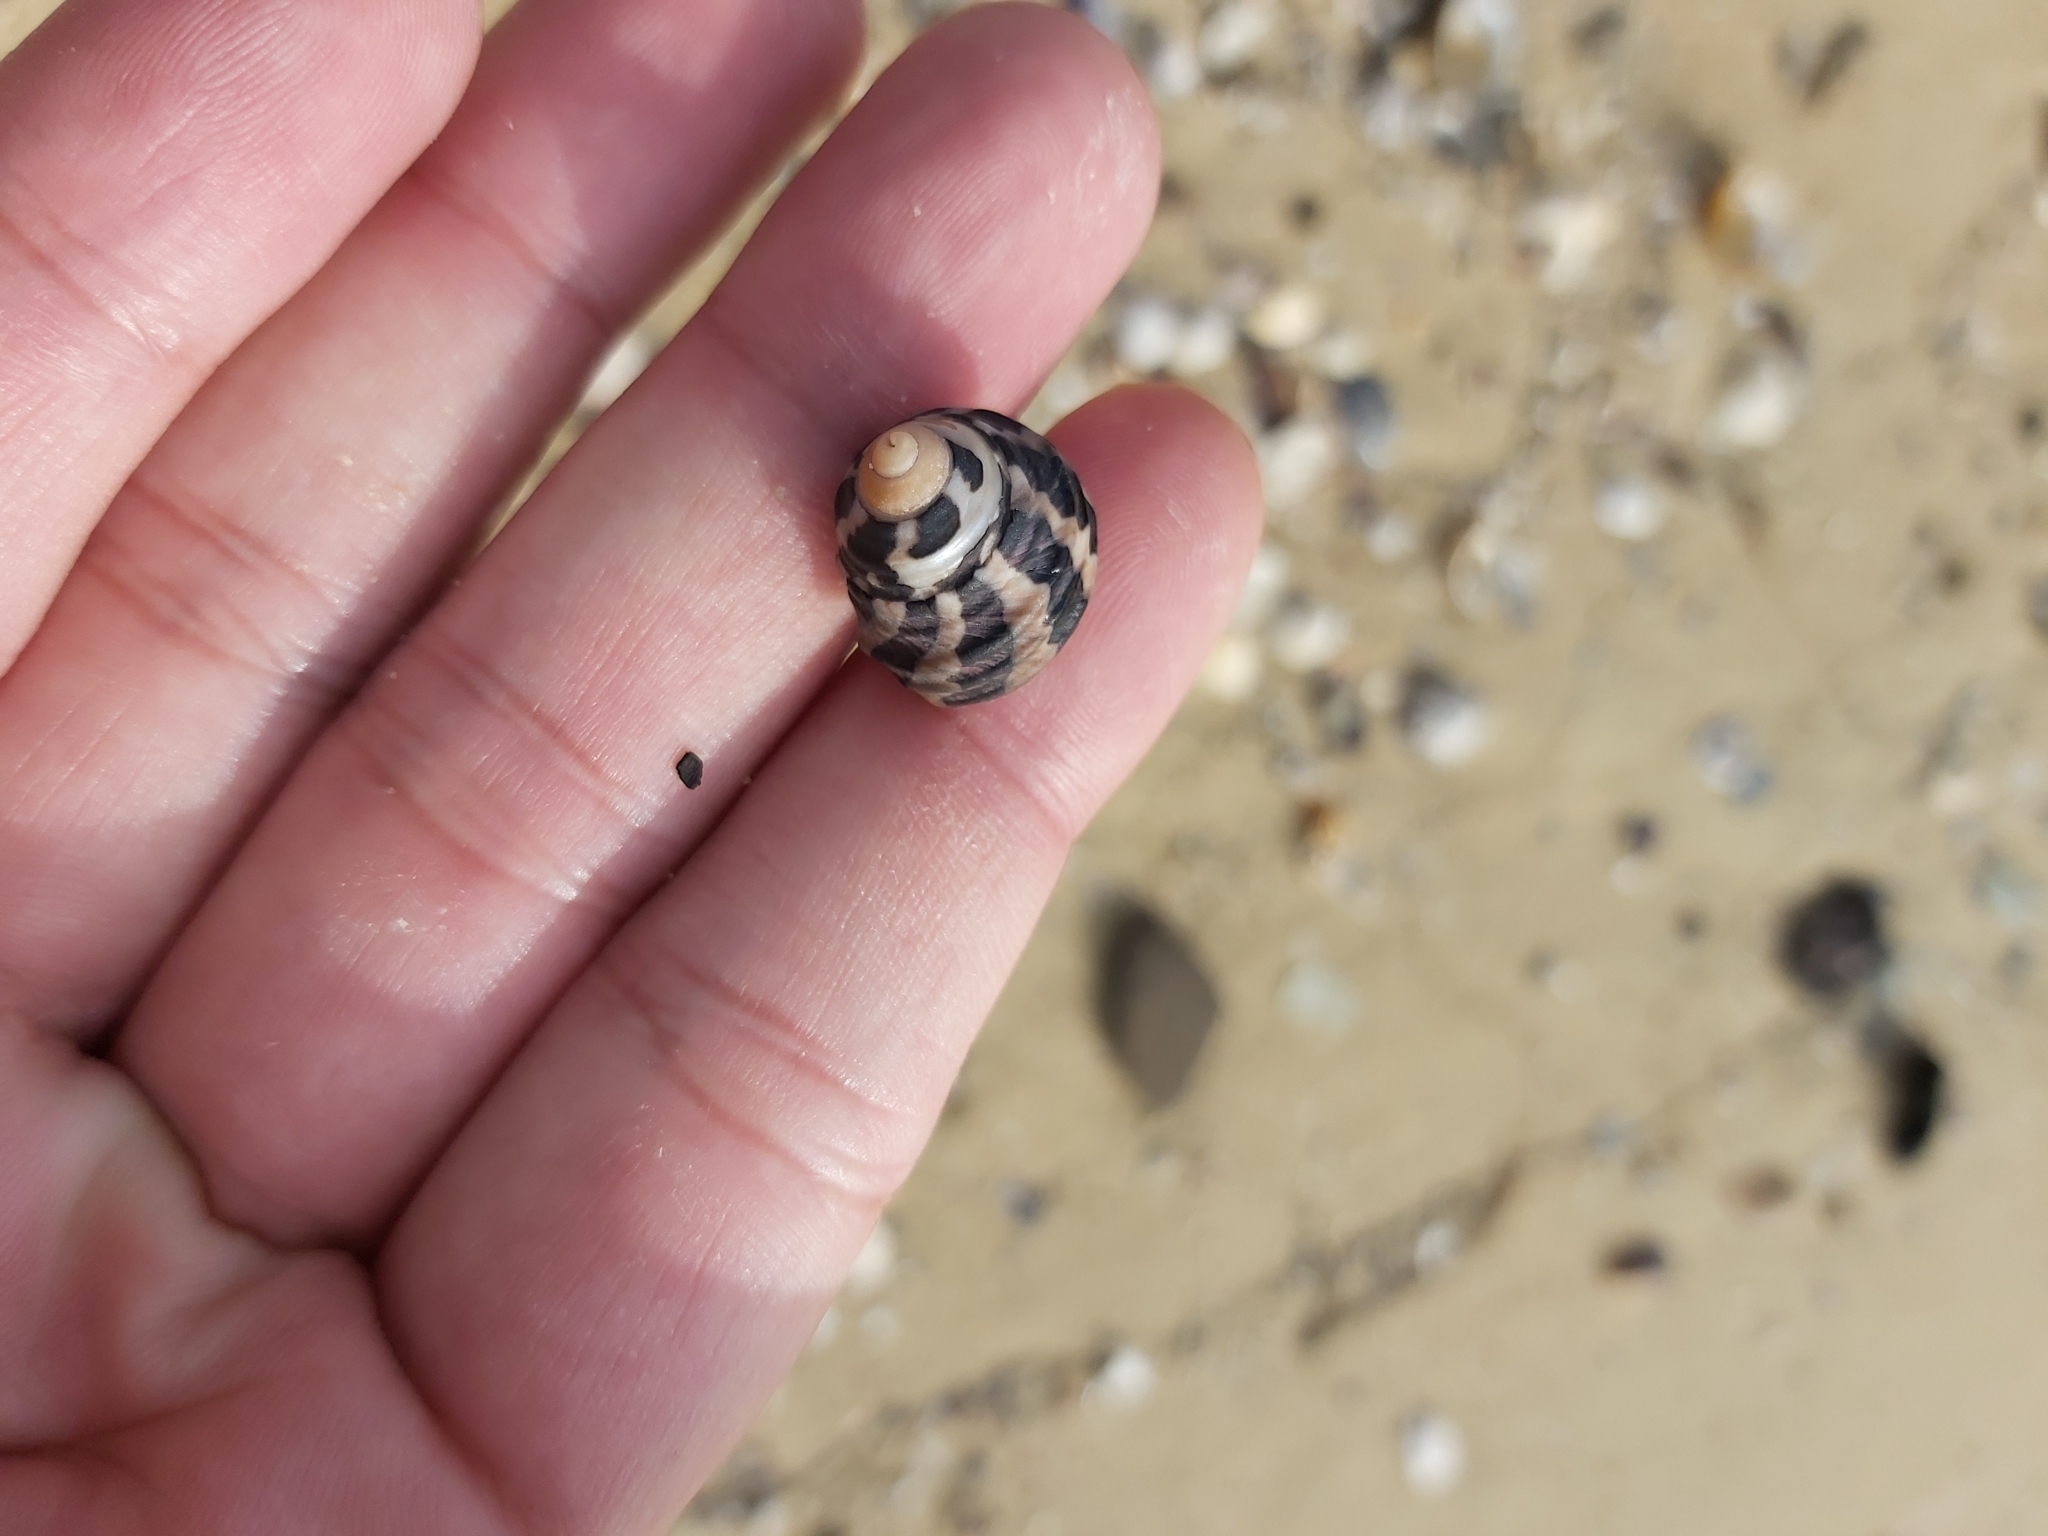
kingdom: Animalia
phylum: Mollusca
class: Gastropoda
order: Trochida
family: Trochidae
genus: Austrocochlea
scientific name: Austrocochlea porcata
